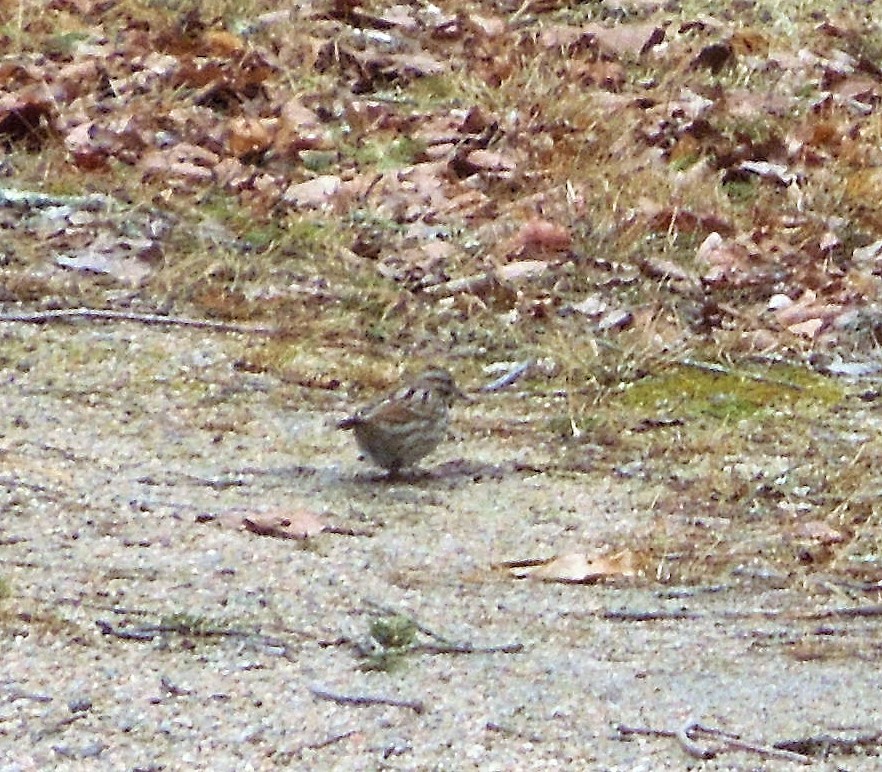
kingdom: Animalia
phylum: Chordata
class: Aves
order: Passeriformes
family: Passerellidae
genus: Melospiza
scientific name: Melospiza melodia
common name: Song sparrow
